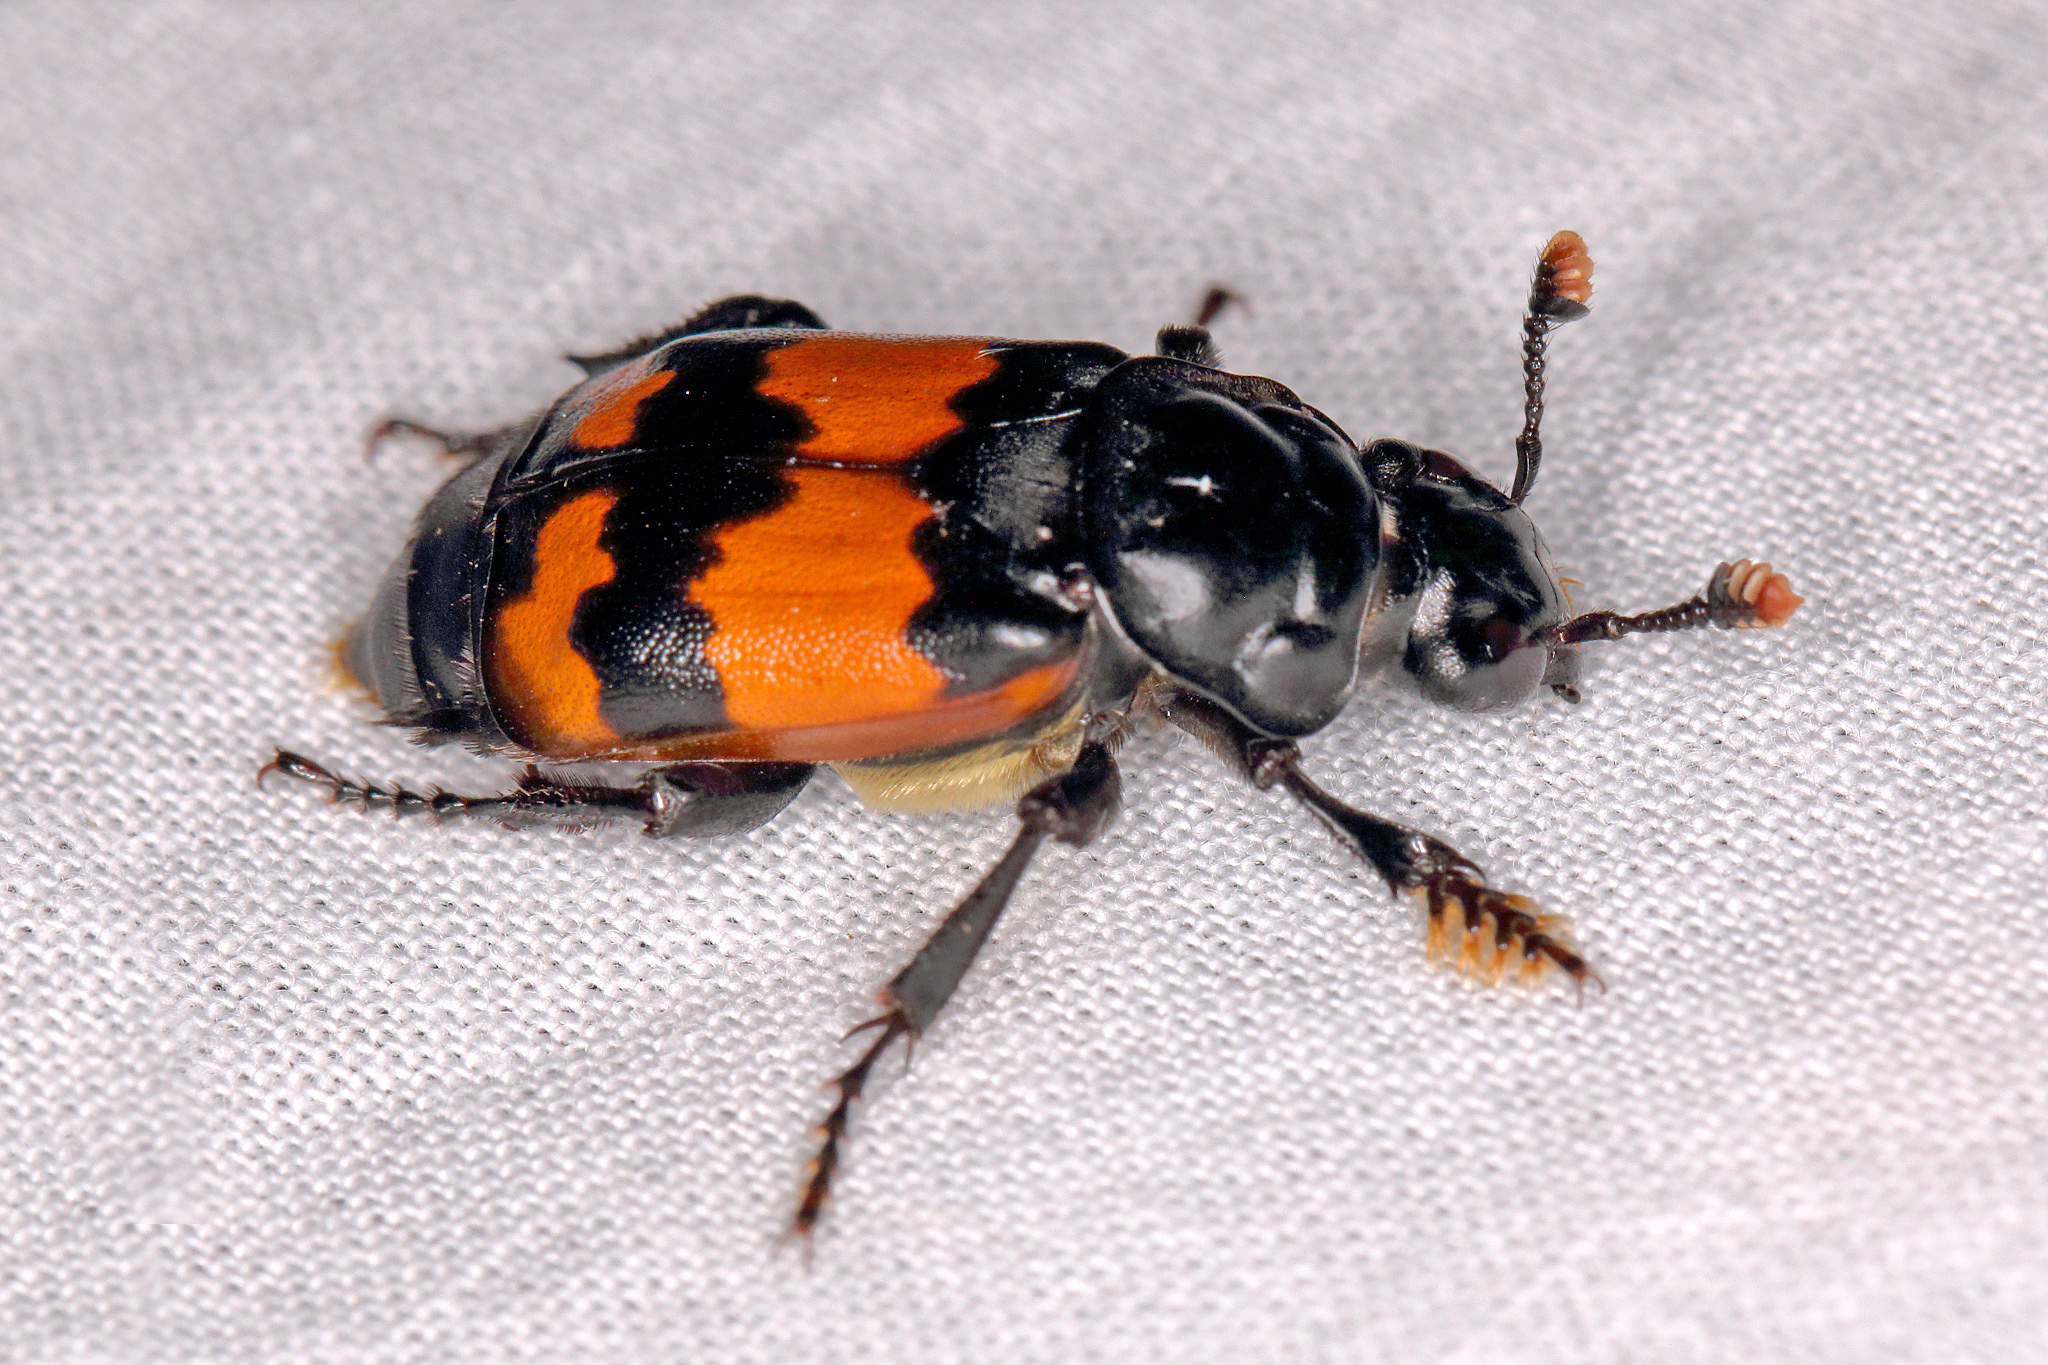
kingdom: Animalia
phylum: Arthropoda
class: Insecta
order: Coleoptera
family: Staphylinidae
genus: Nicrophorus
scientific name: Nicrophorus investigator
